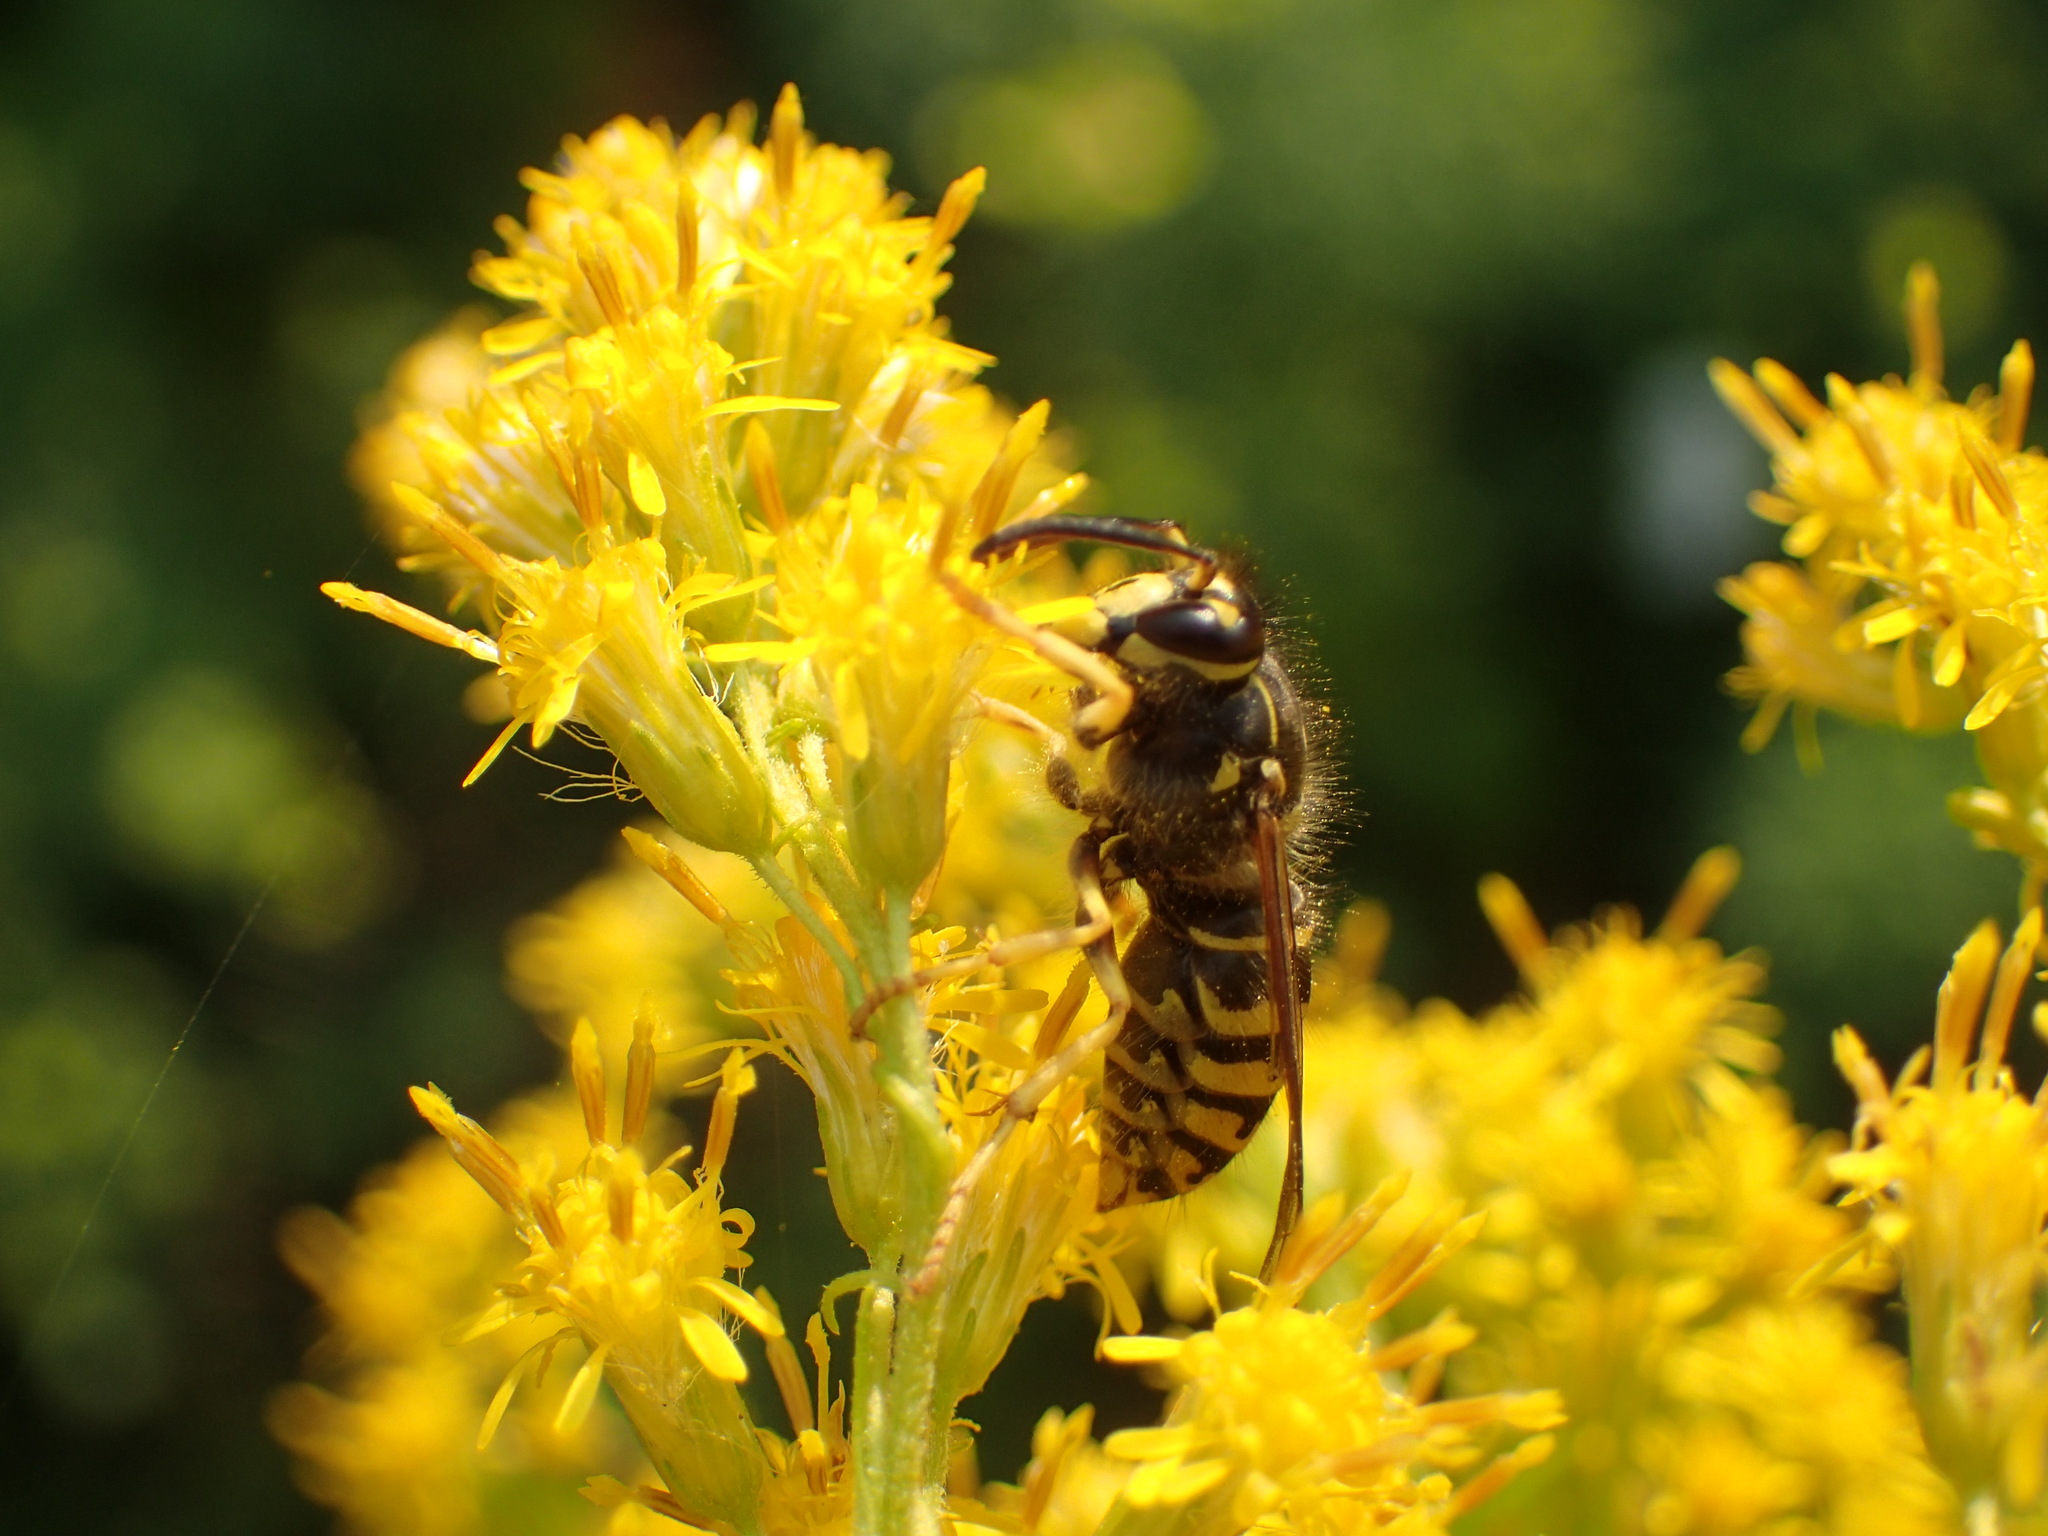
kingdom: Animalia
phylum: Arthropoda
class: Insecta
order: Hymenoptera
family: Vespidae
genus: Dolichovespula
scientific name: Dolichovespula arenaria
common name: Aerial yellowjacket
